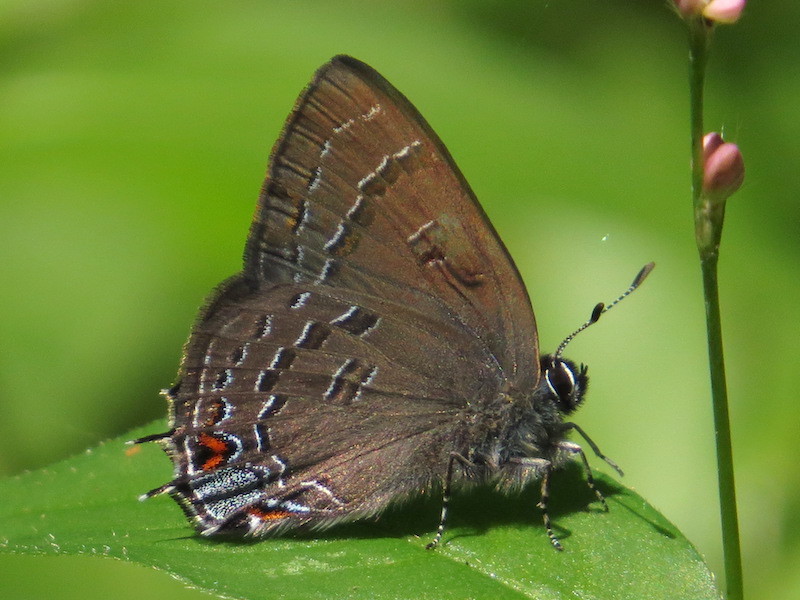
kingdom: Animalia
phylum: Arthropoda
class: Insecta
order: Lepidoptera
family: Lycaenidae
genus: Satyrium
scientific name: Satyrium calanus
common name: Banded hairstreak
